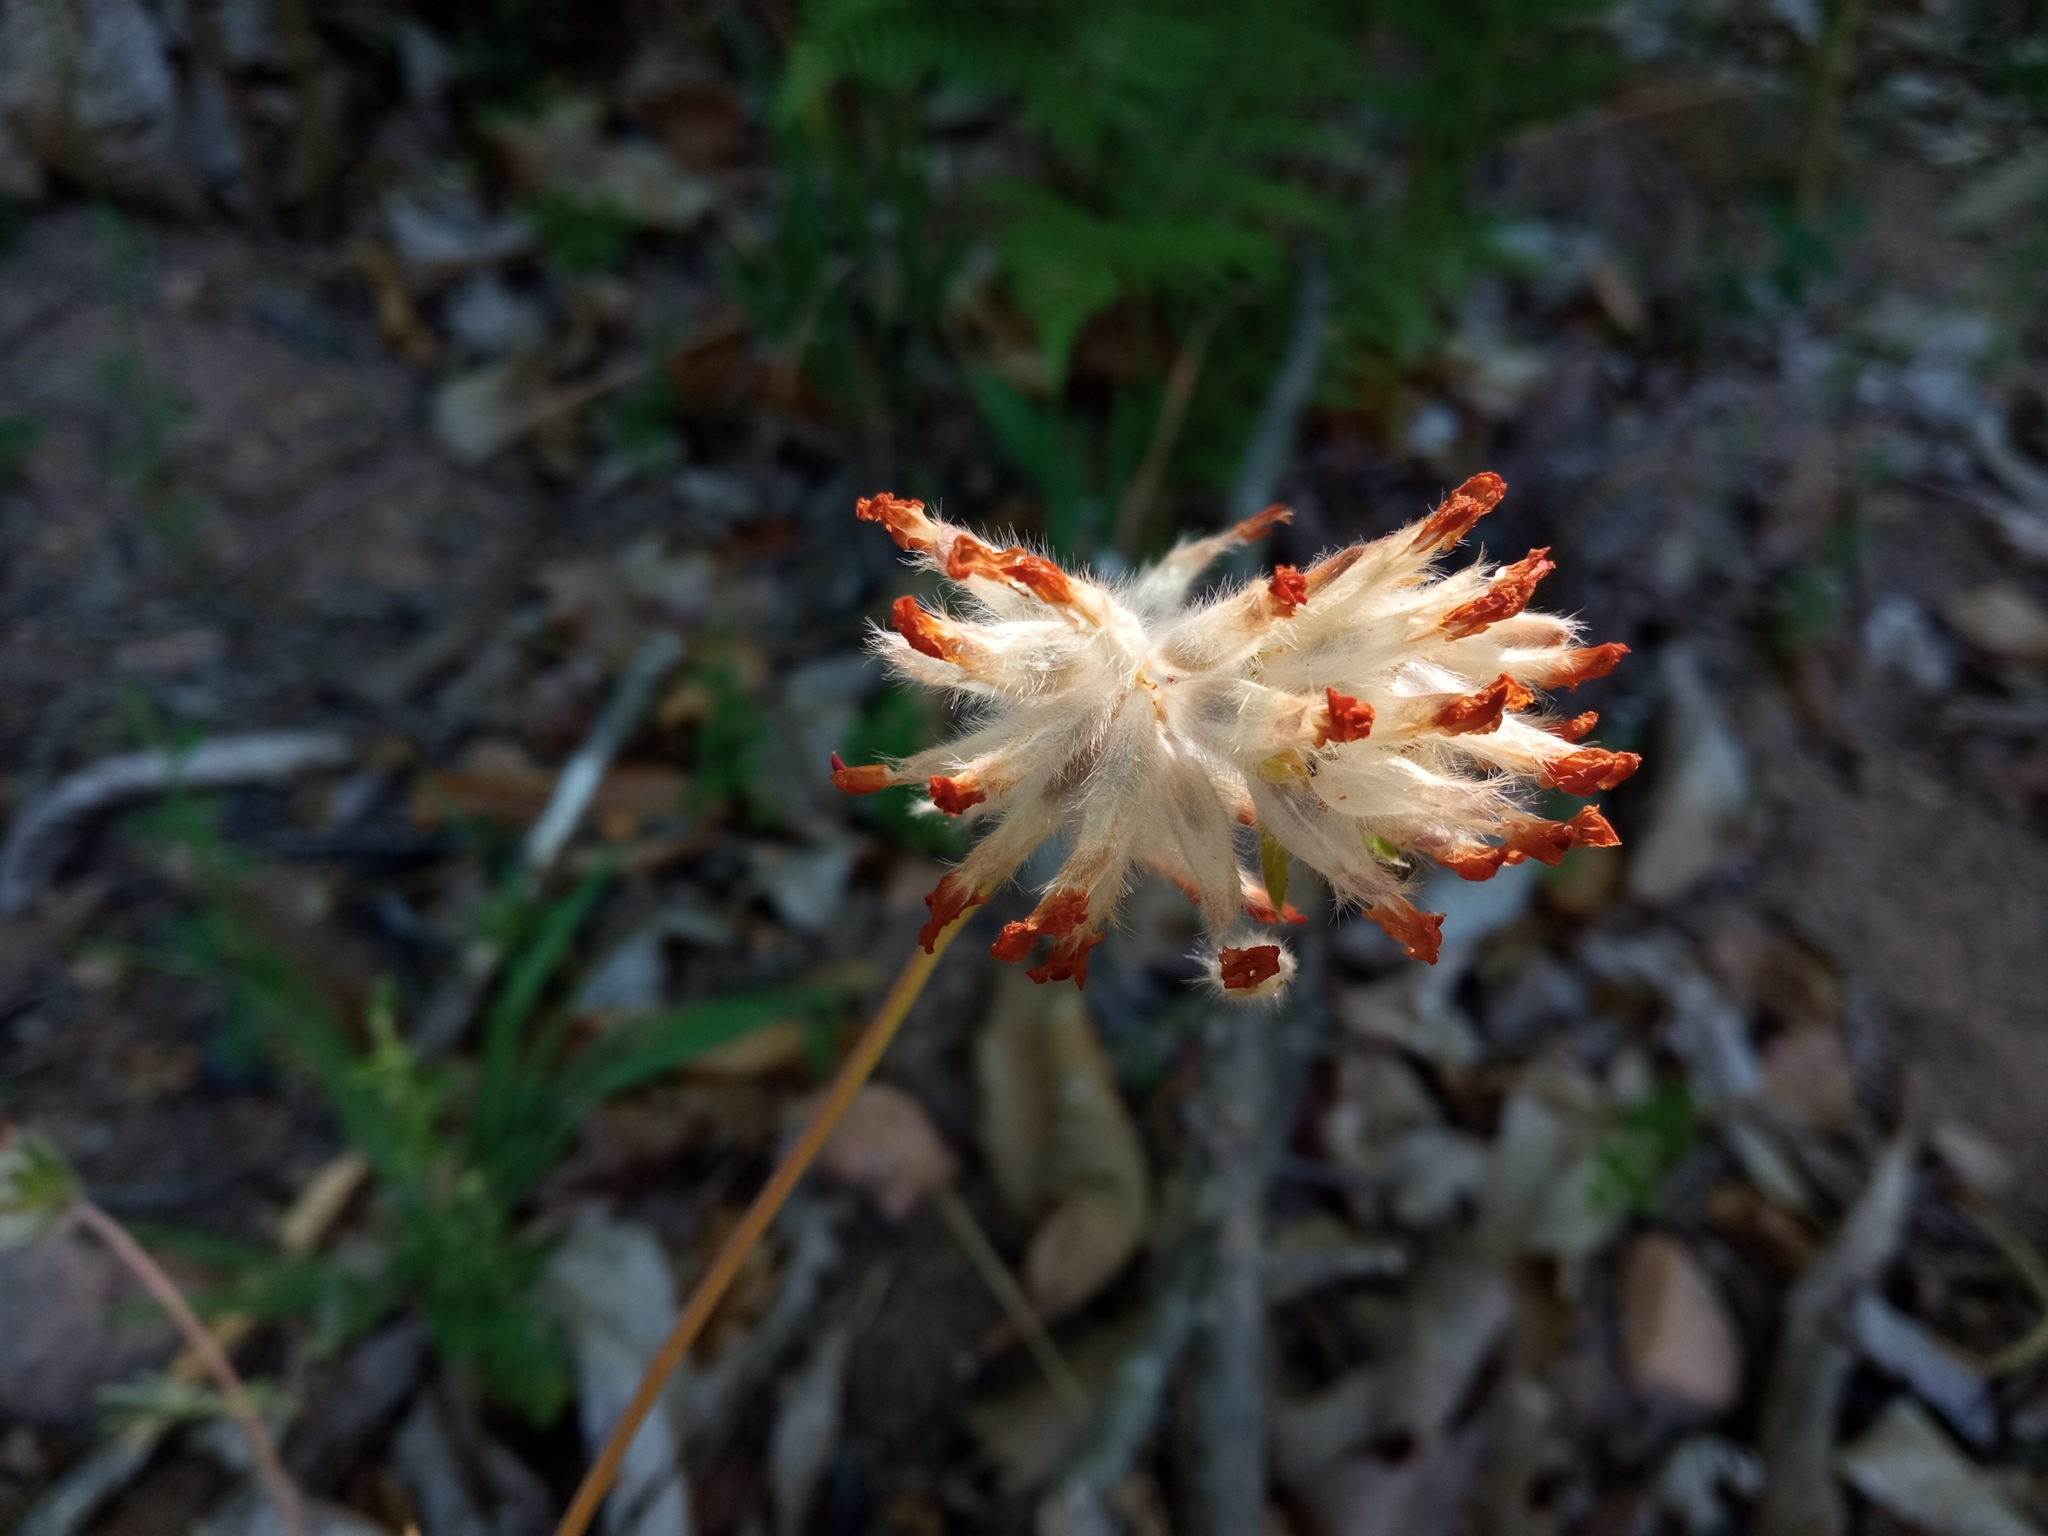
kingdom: Plantae
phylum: Tracheophyta
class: Magnoliopsida
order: Fabales
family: Fabaceae
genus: Anthyllis
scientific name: Anthyllis vulneraria
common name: Kidney vetch
